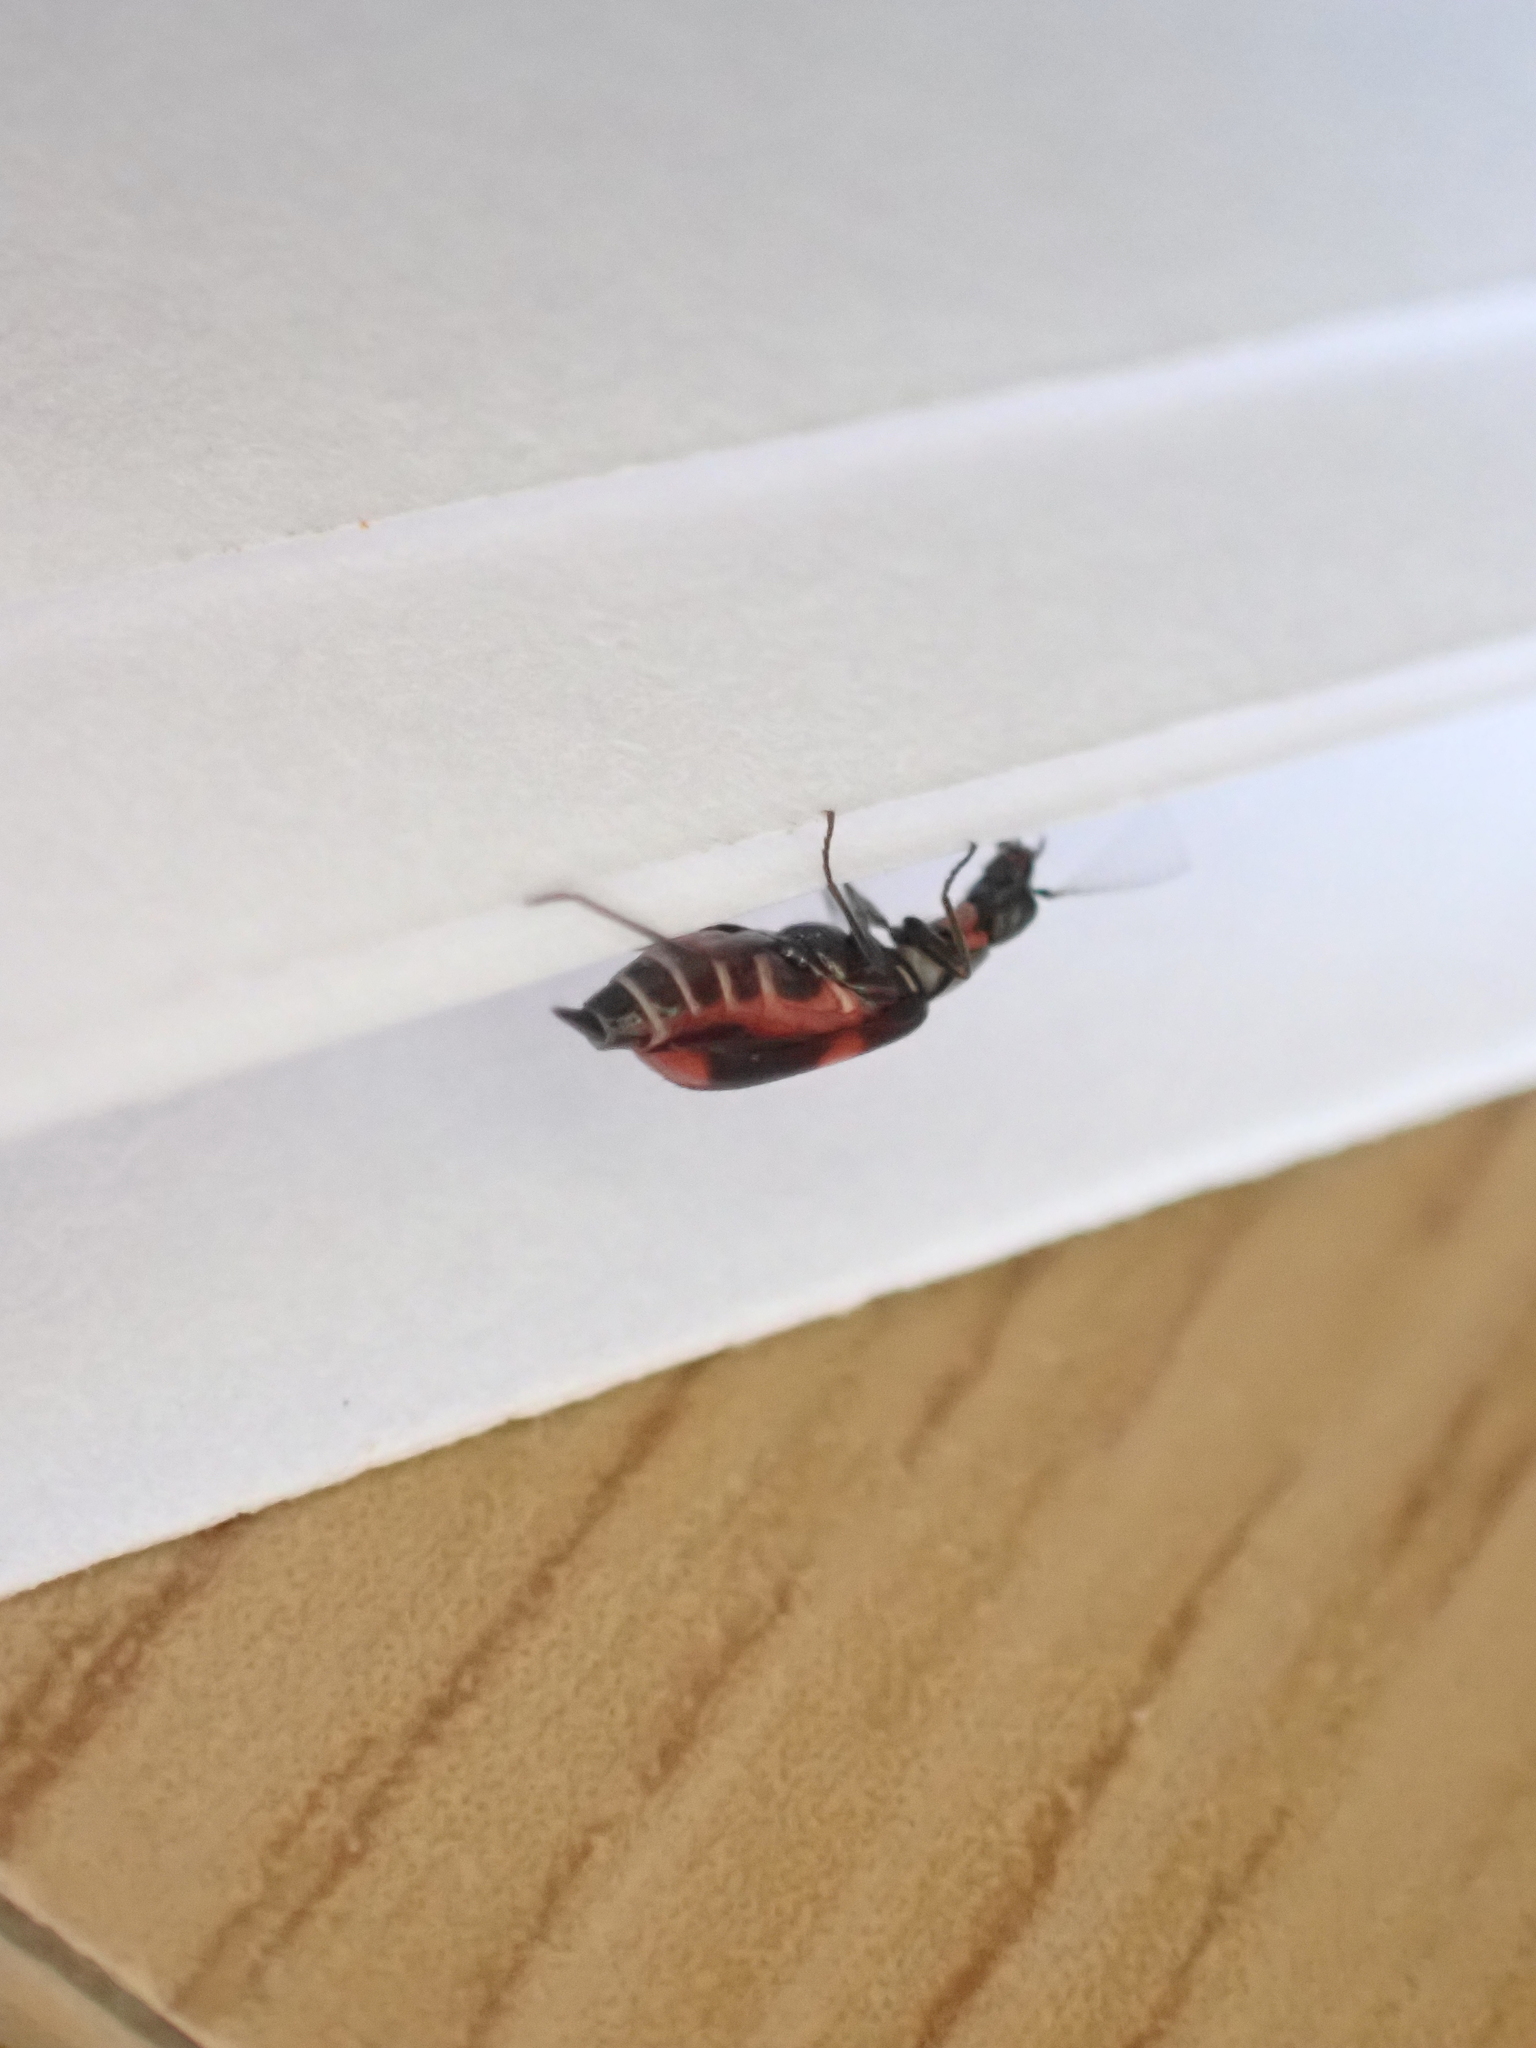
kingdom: Animalia
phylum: Arthropoda
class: Insecta
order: Coleoptera
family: Melyridae
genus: Anthocomus
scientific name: Anthocomus equestris
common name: Black-banded soft-winged flower beetle
